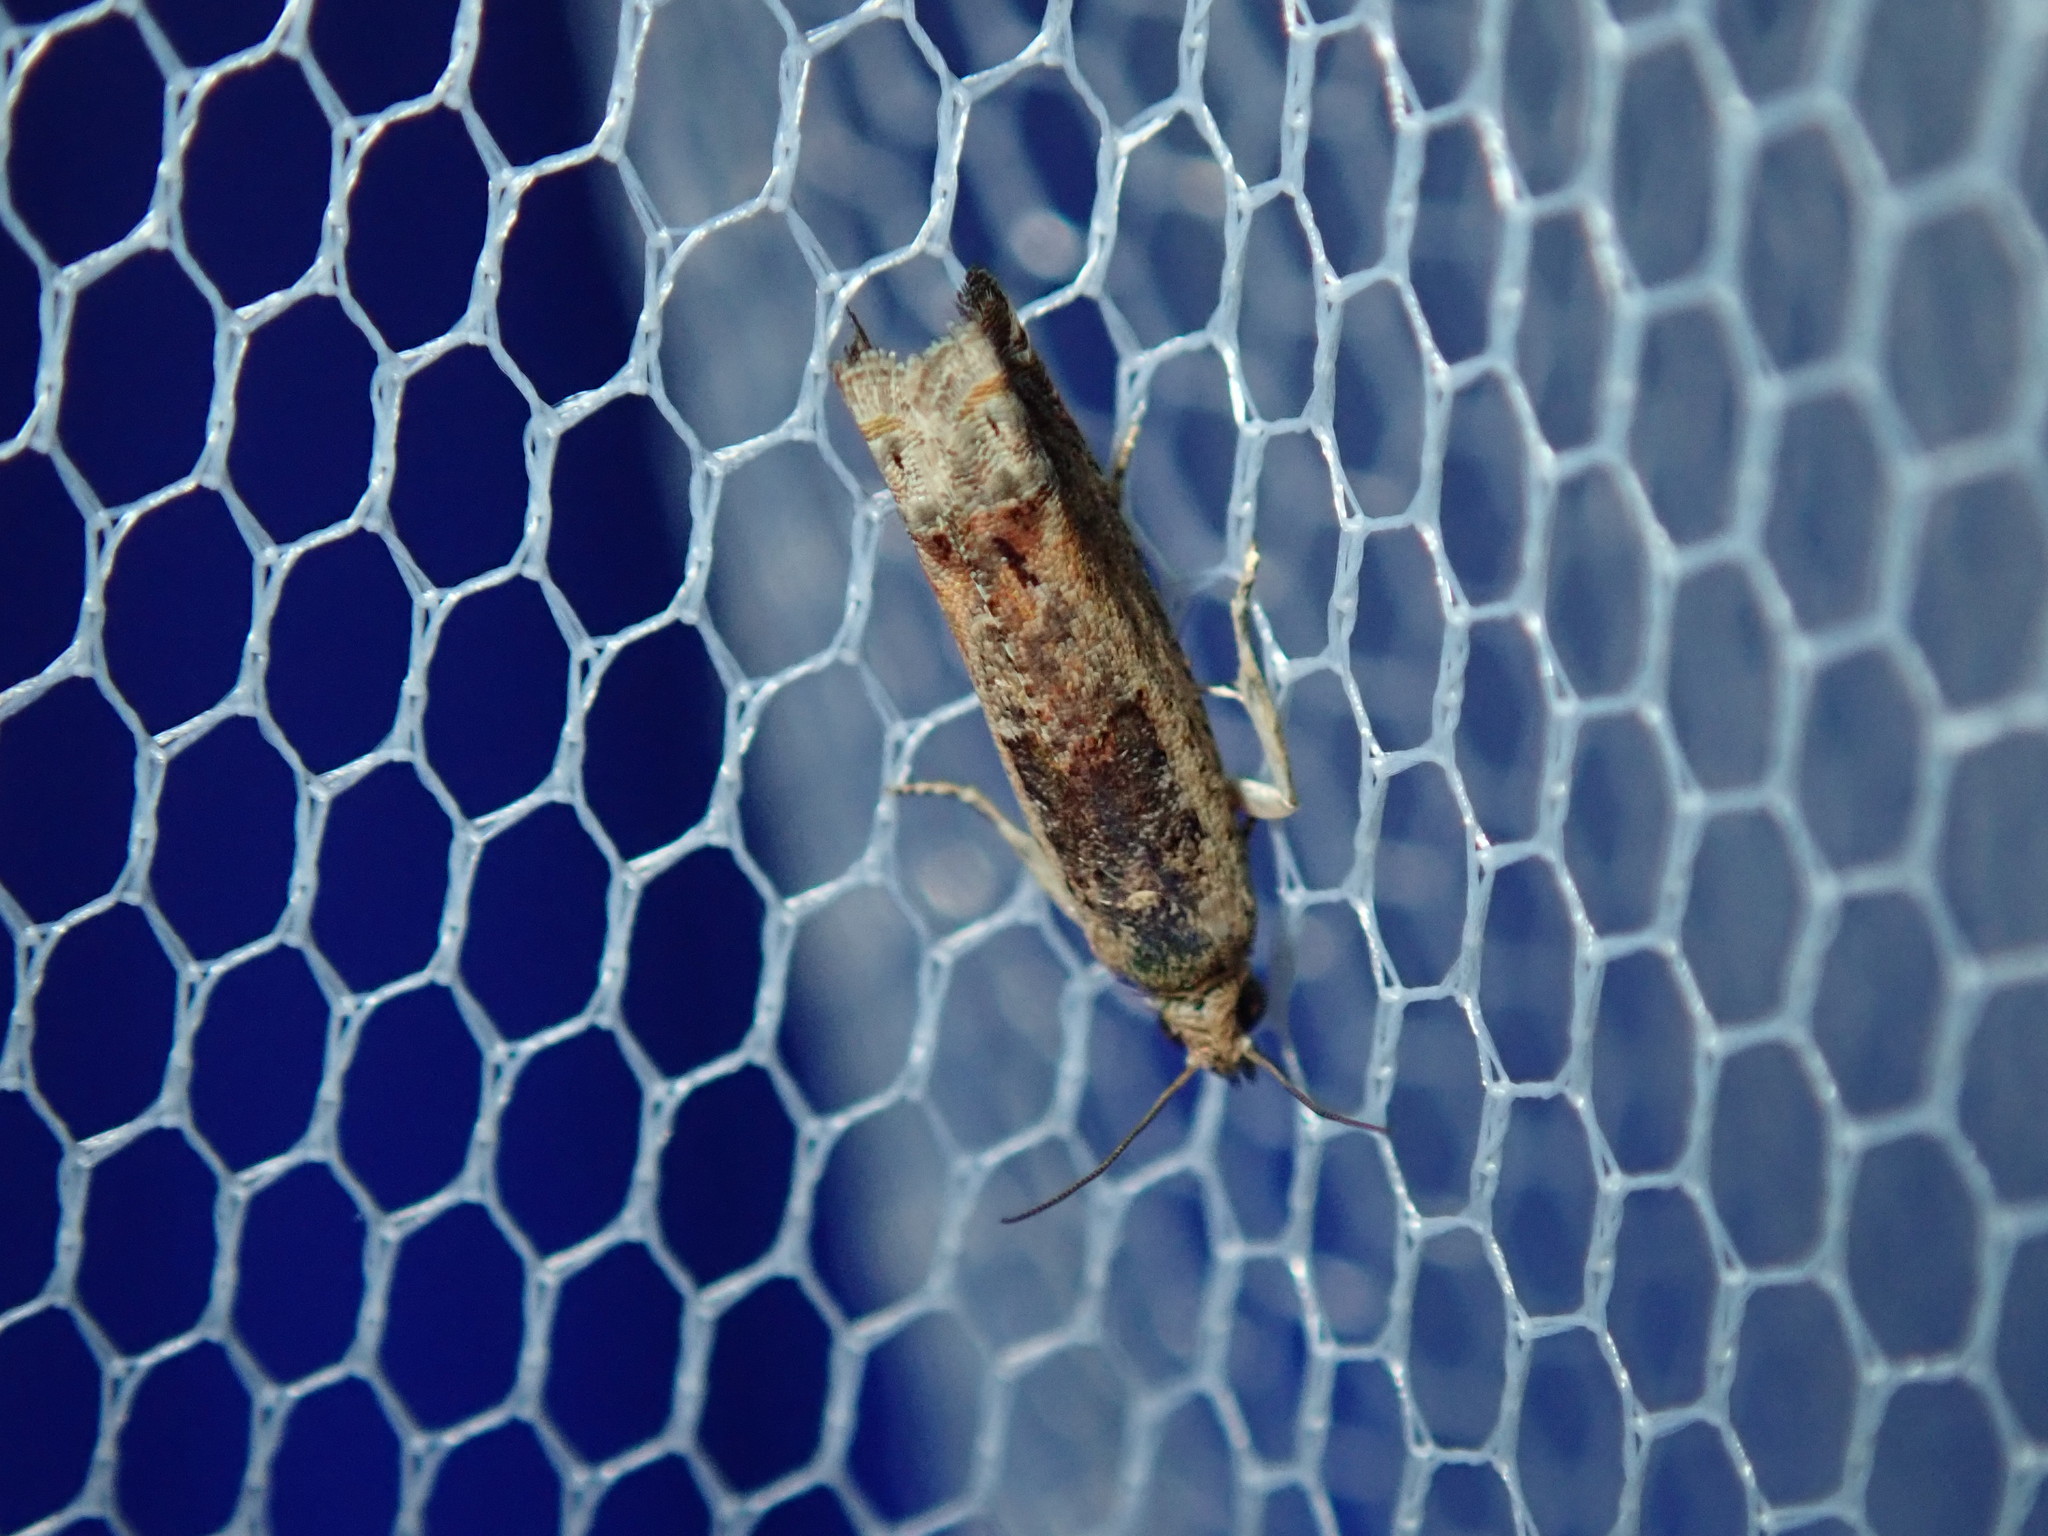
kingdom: Animalia
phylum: Arthropoda
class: Insecta
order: Lepidoptera
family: Tortricidae
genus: Crocidosema
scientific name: Crocidosema plebejana
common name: Southern bell
